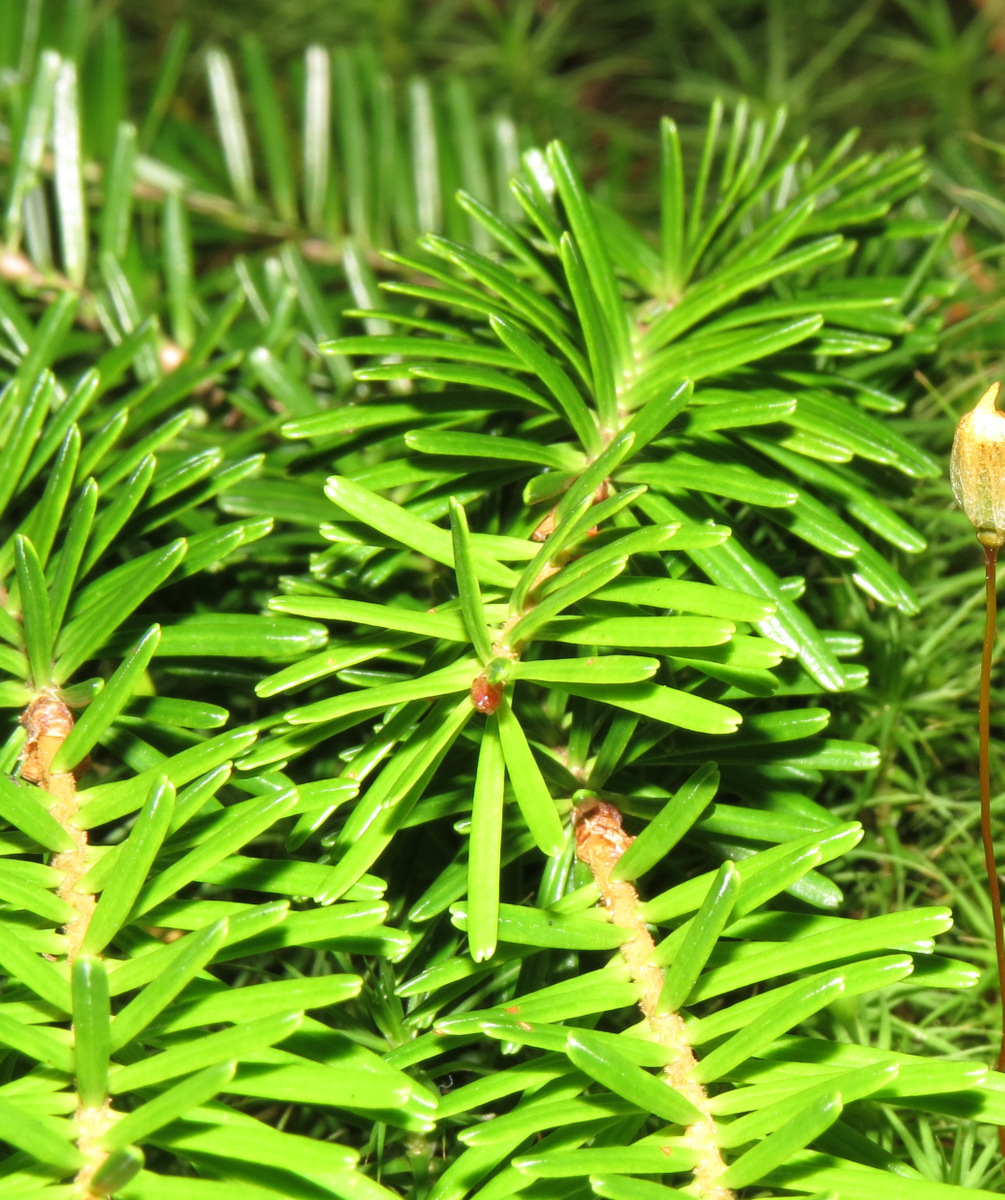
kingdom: Plantae
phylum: Tracheophyta
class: Pinopsida
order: Pinales
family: Pinaceae
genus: Abies
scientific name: Abies balsamea
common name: Balsam fir
